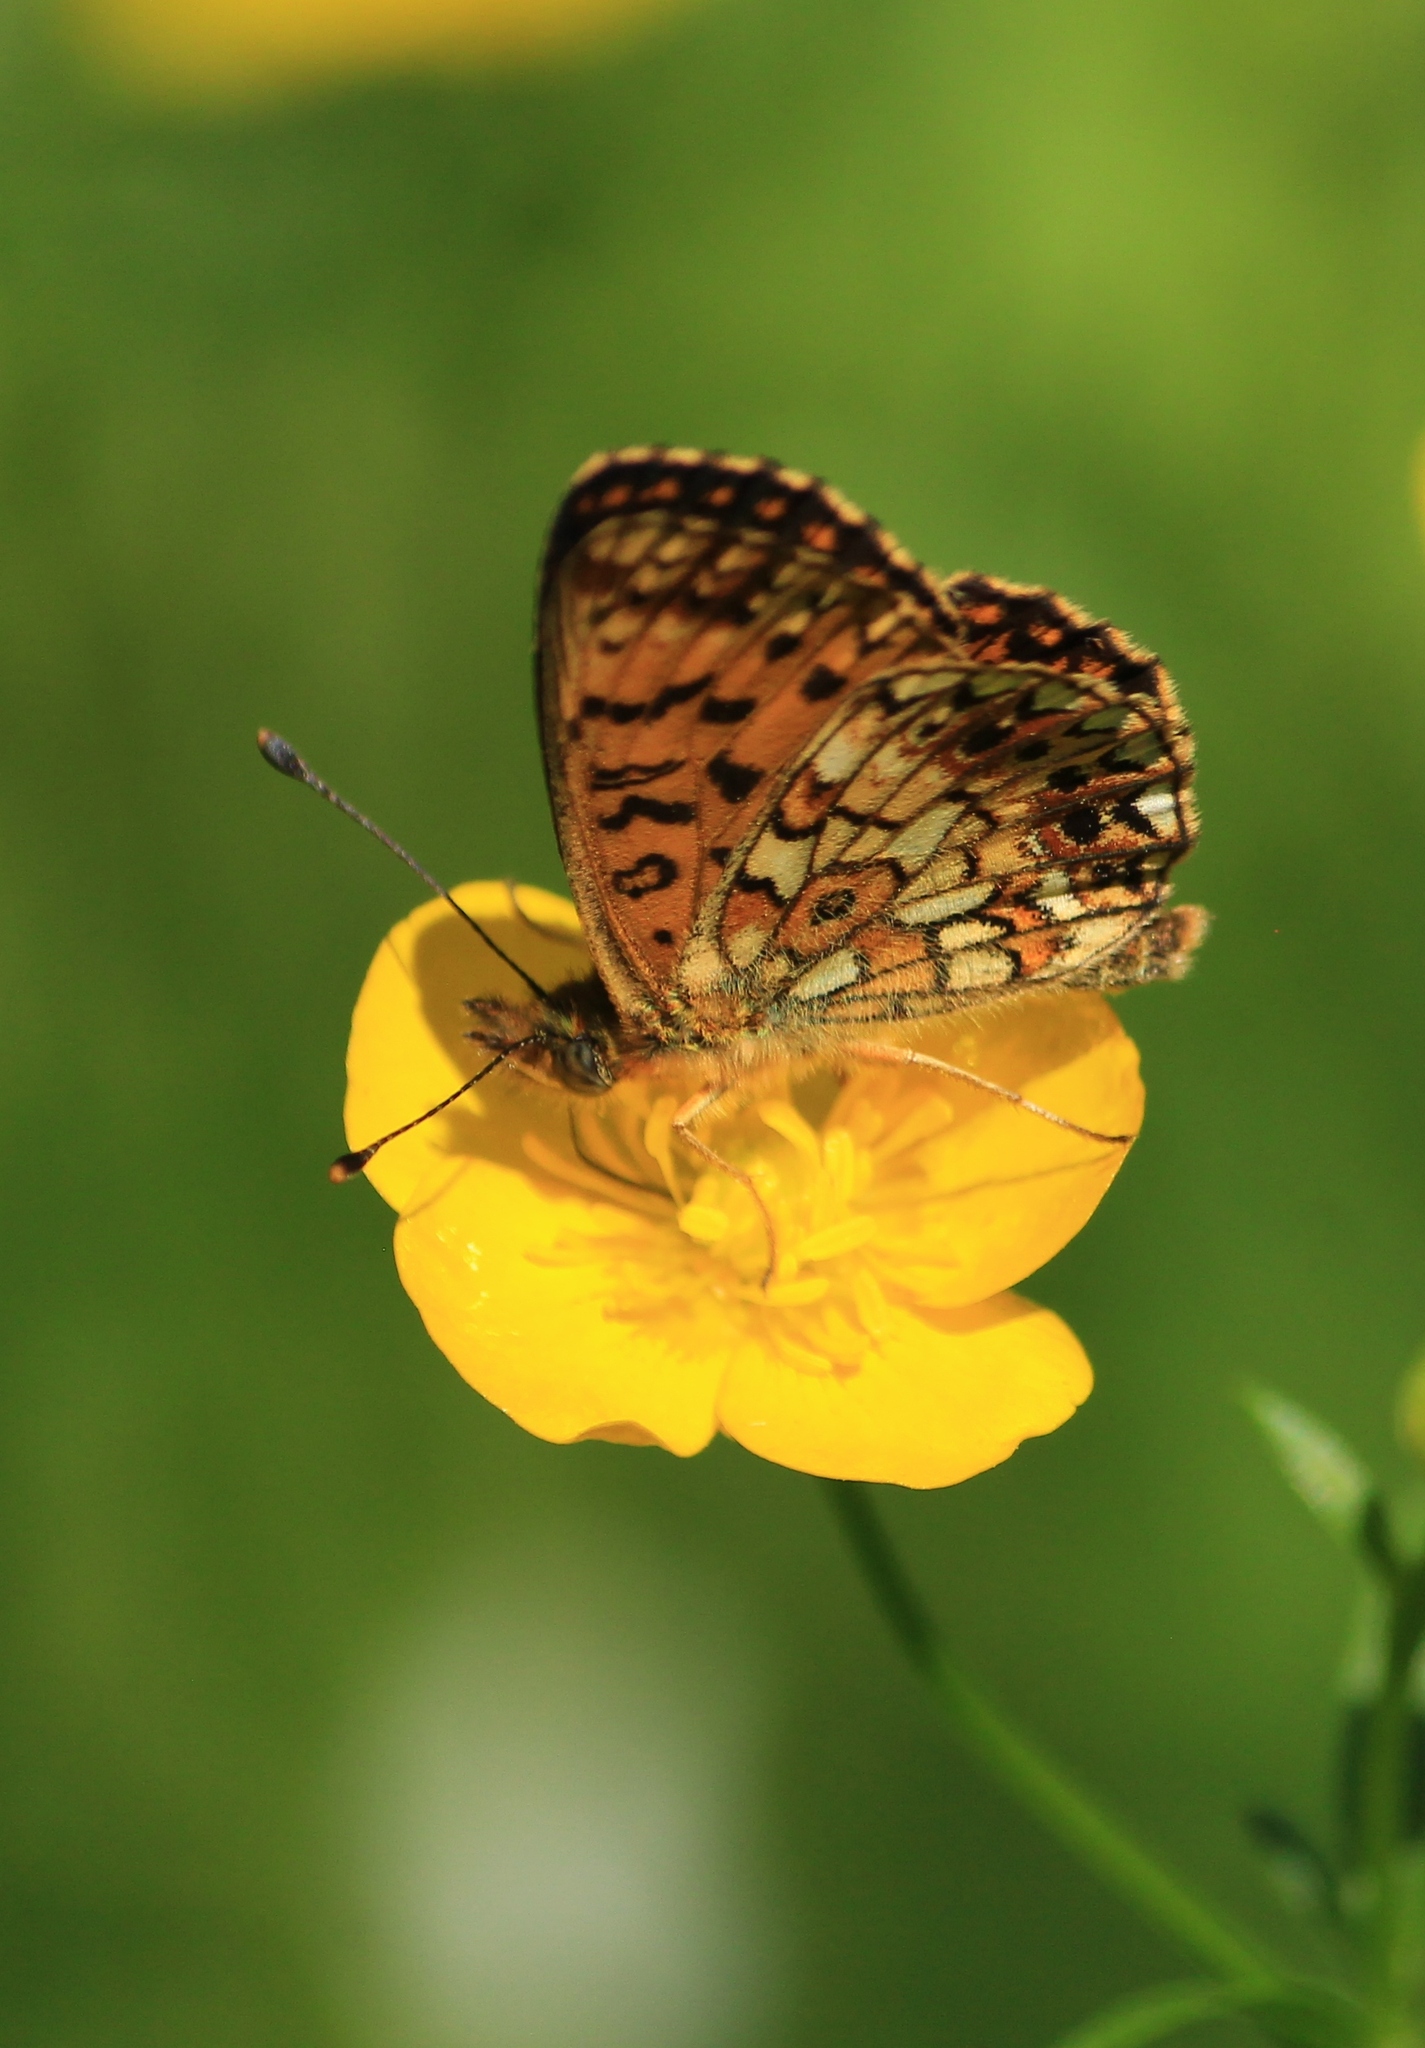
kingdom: Animalia
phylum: Arthropoda
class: Insecta
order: Lepidoptera
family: Nymphalidae
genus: Boloria
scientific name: Boloria selene
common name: Small pearl-bordered fritillary
